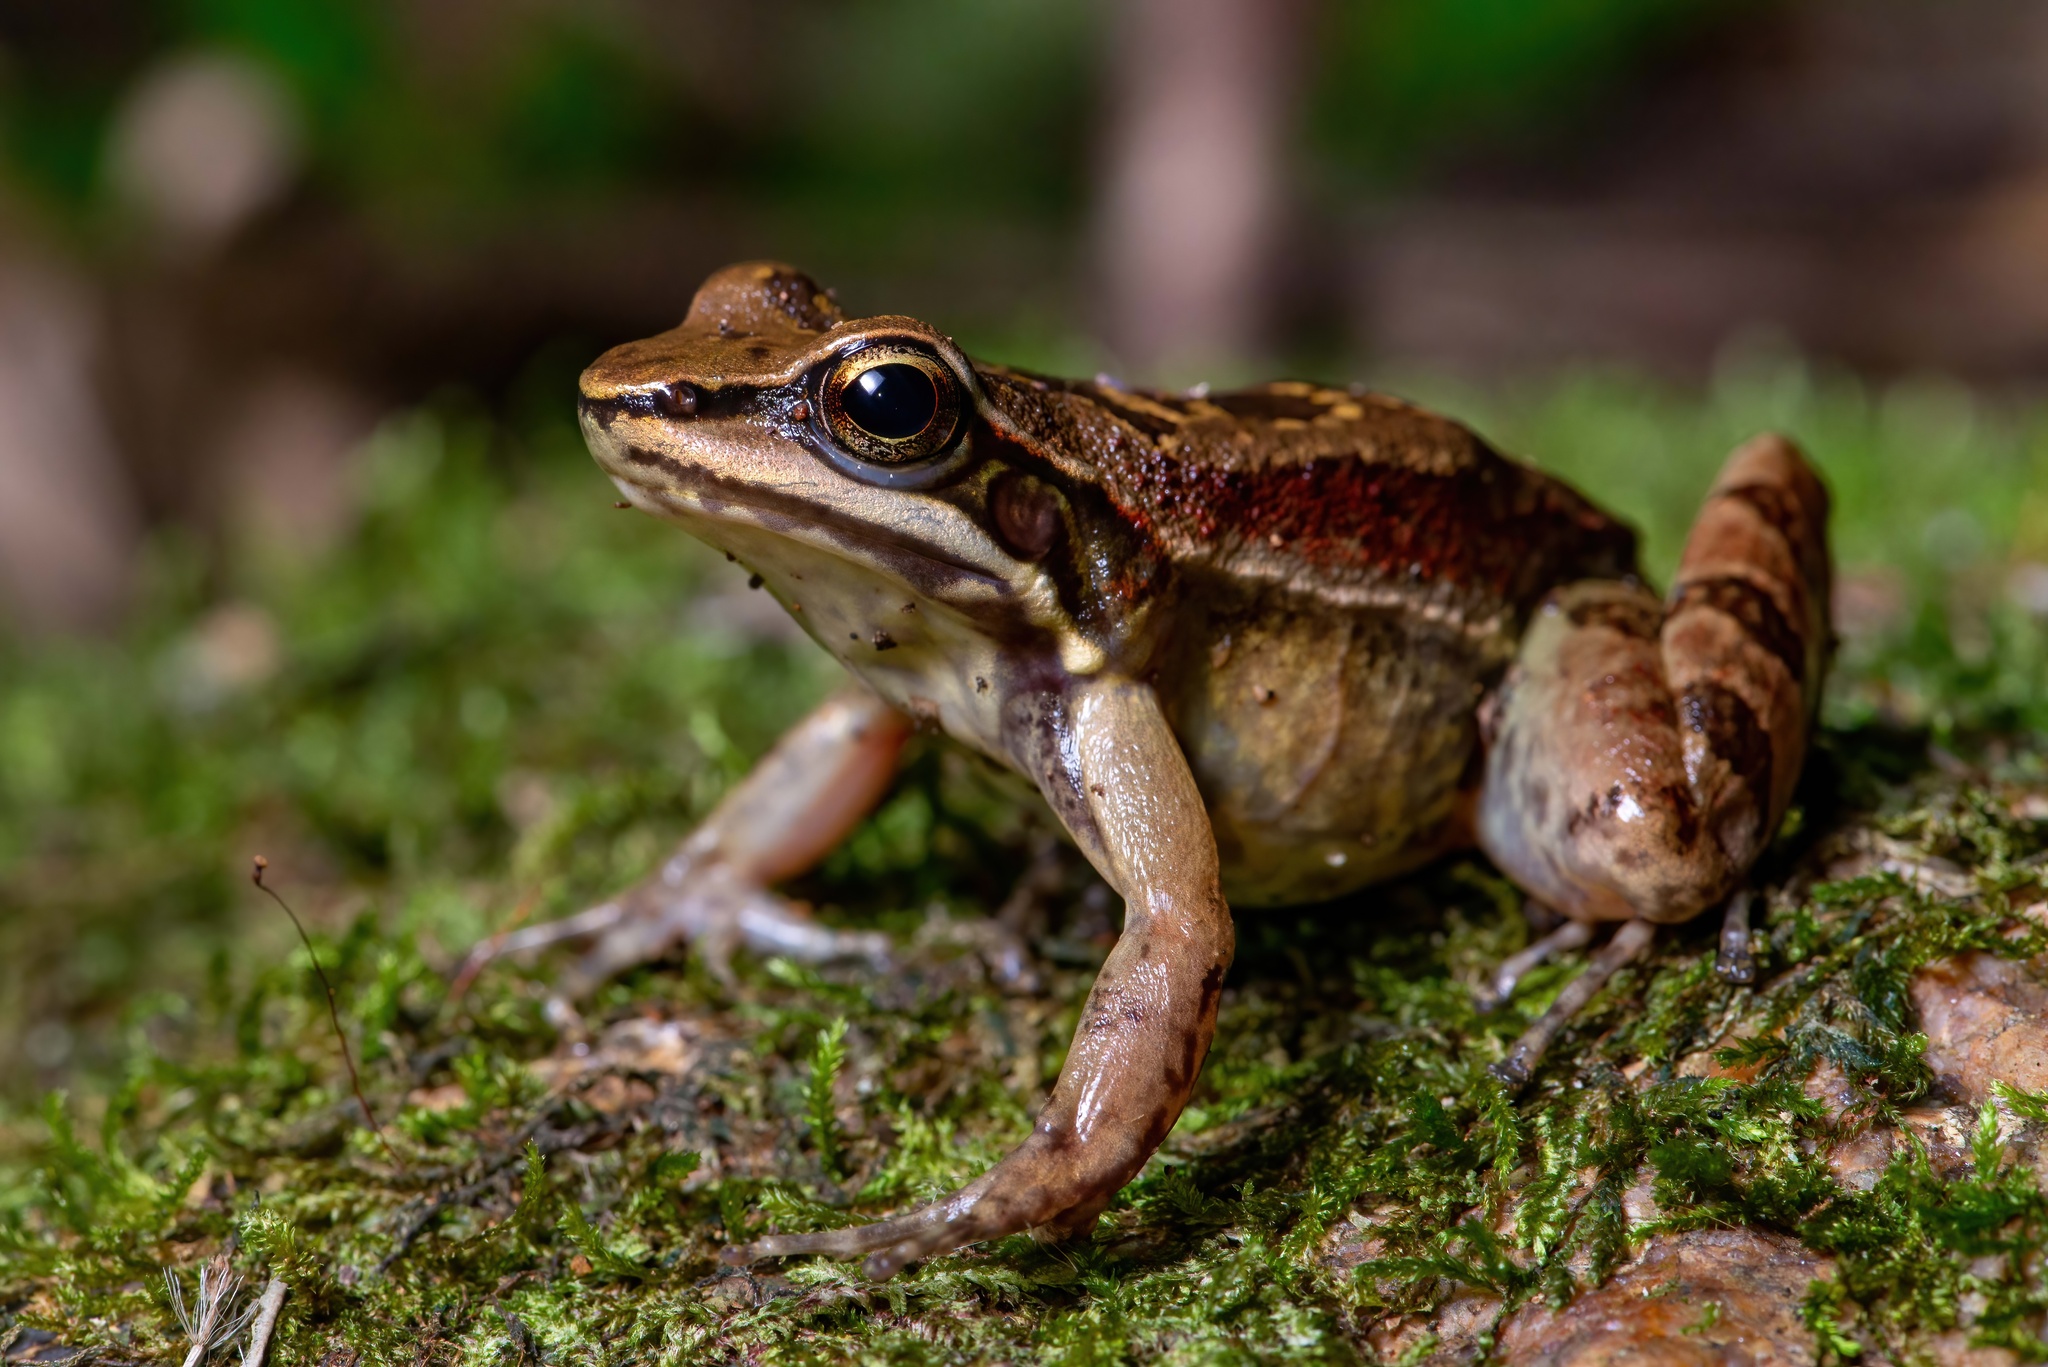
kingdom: Animalia
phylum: Chordata
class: Amphibia
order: Anura
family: Hylodidae
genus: Hylodes
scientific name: Hylodes perplicatus
